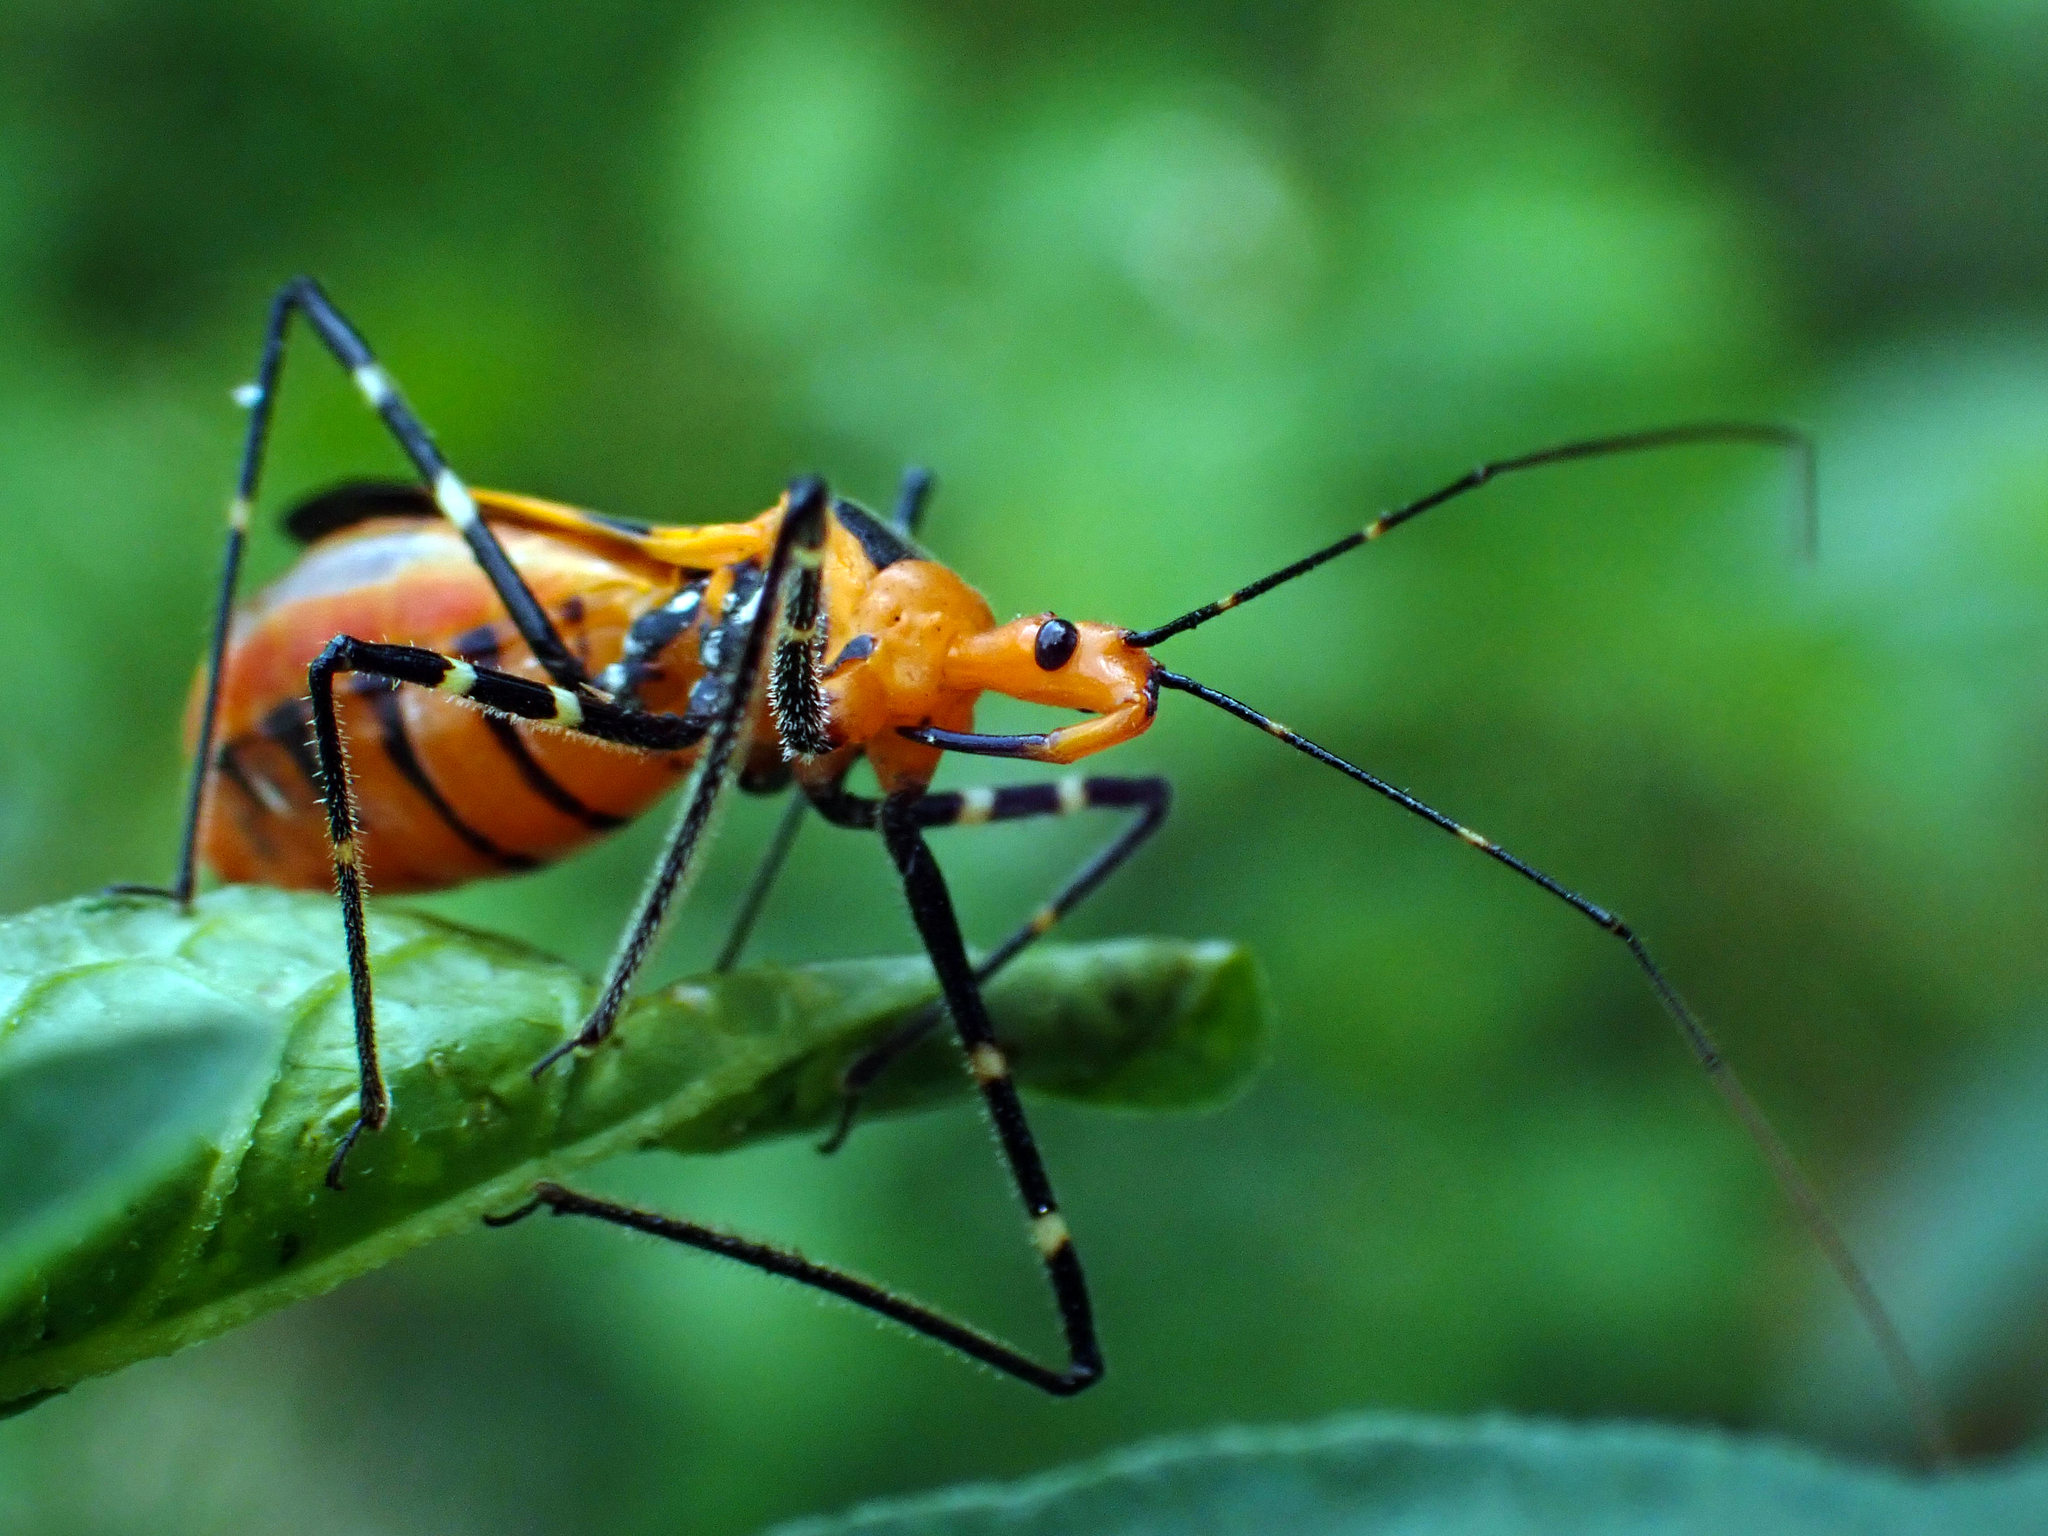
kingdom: Animalia
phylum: Arthropoda
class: Insecta
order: Hemiptera
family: Reduviidae
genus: Zelus
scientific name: Zelus longipes
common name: Milkweed assassin bug
